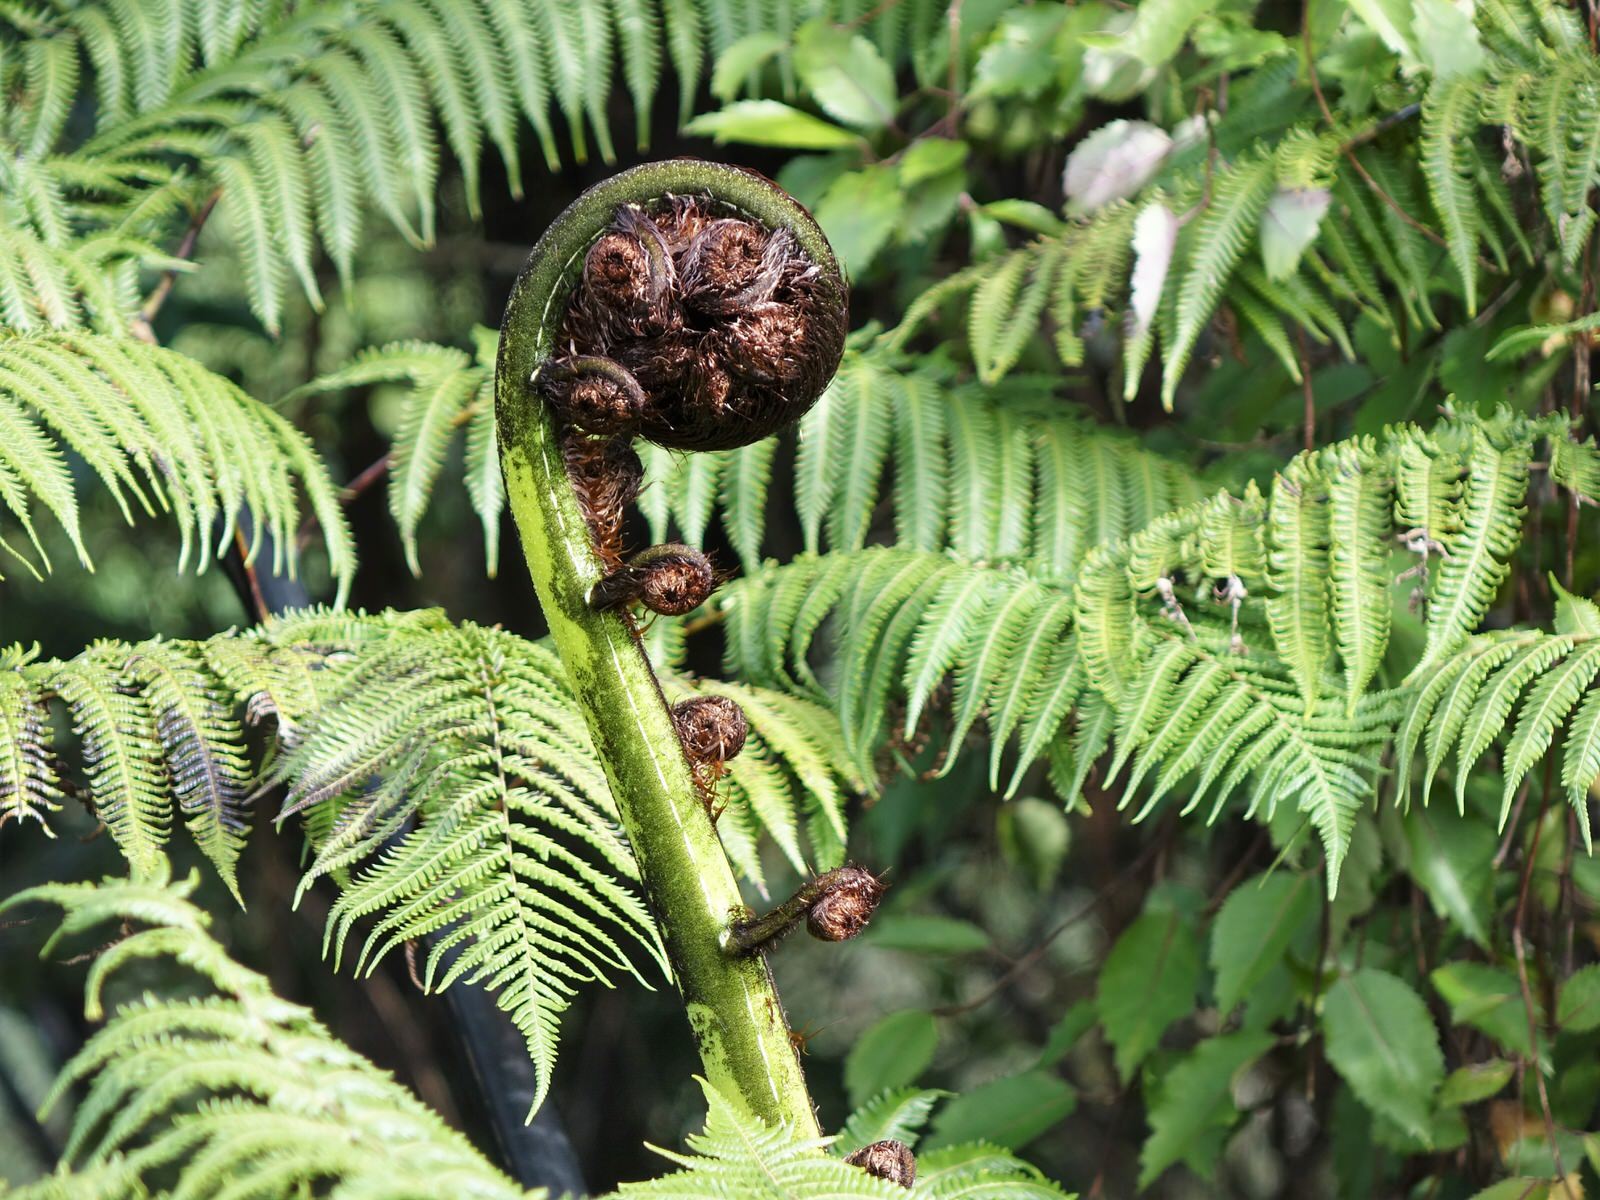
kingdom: Plantae
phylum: Tracheophyta
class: Polypodiopsida
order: Cyatheales
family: Cyatheaceae
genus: Sphaeropteris
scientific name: Sphaeropteris medullaris
